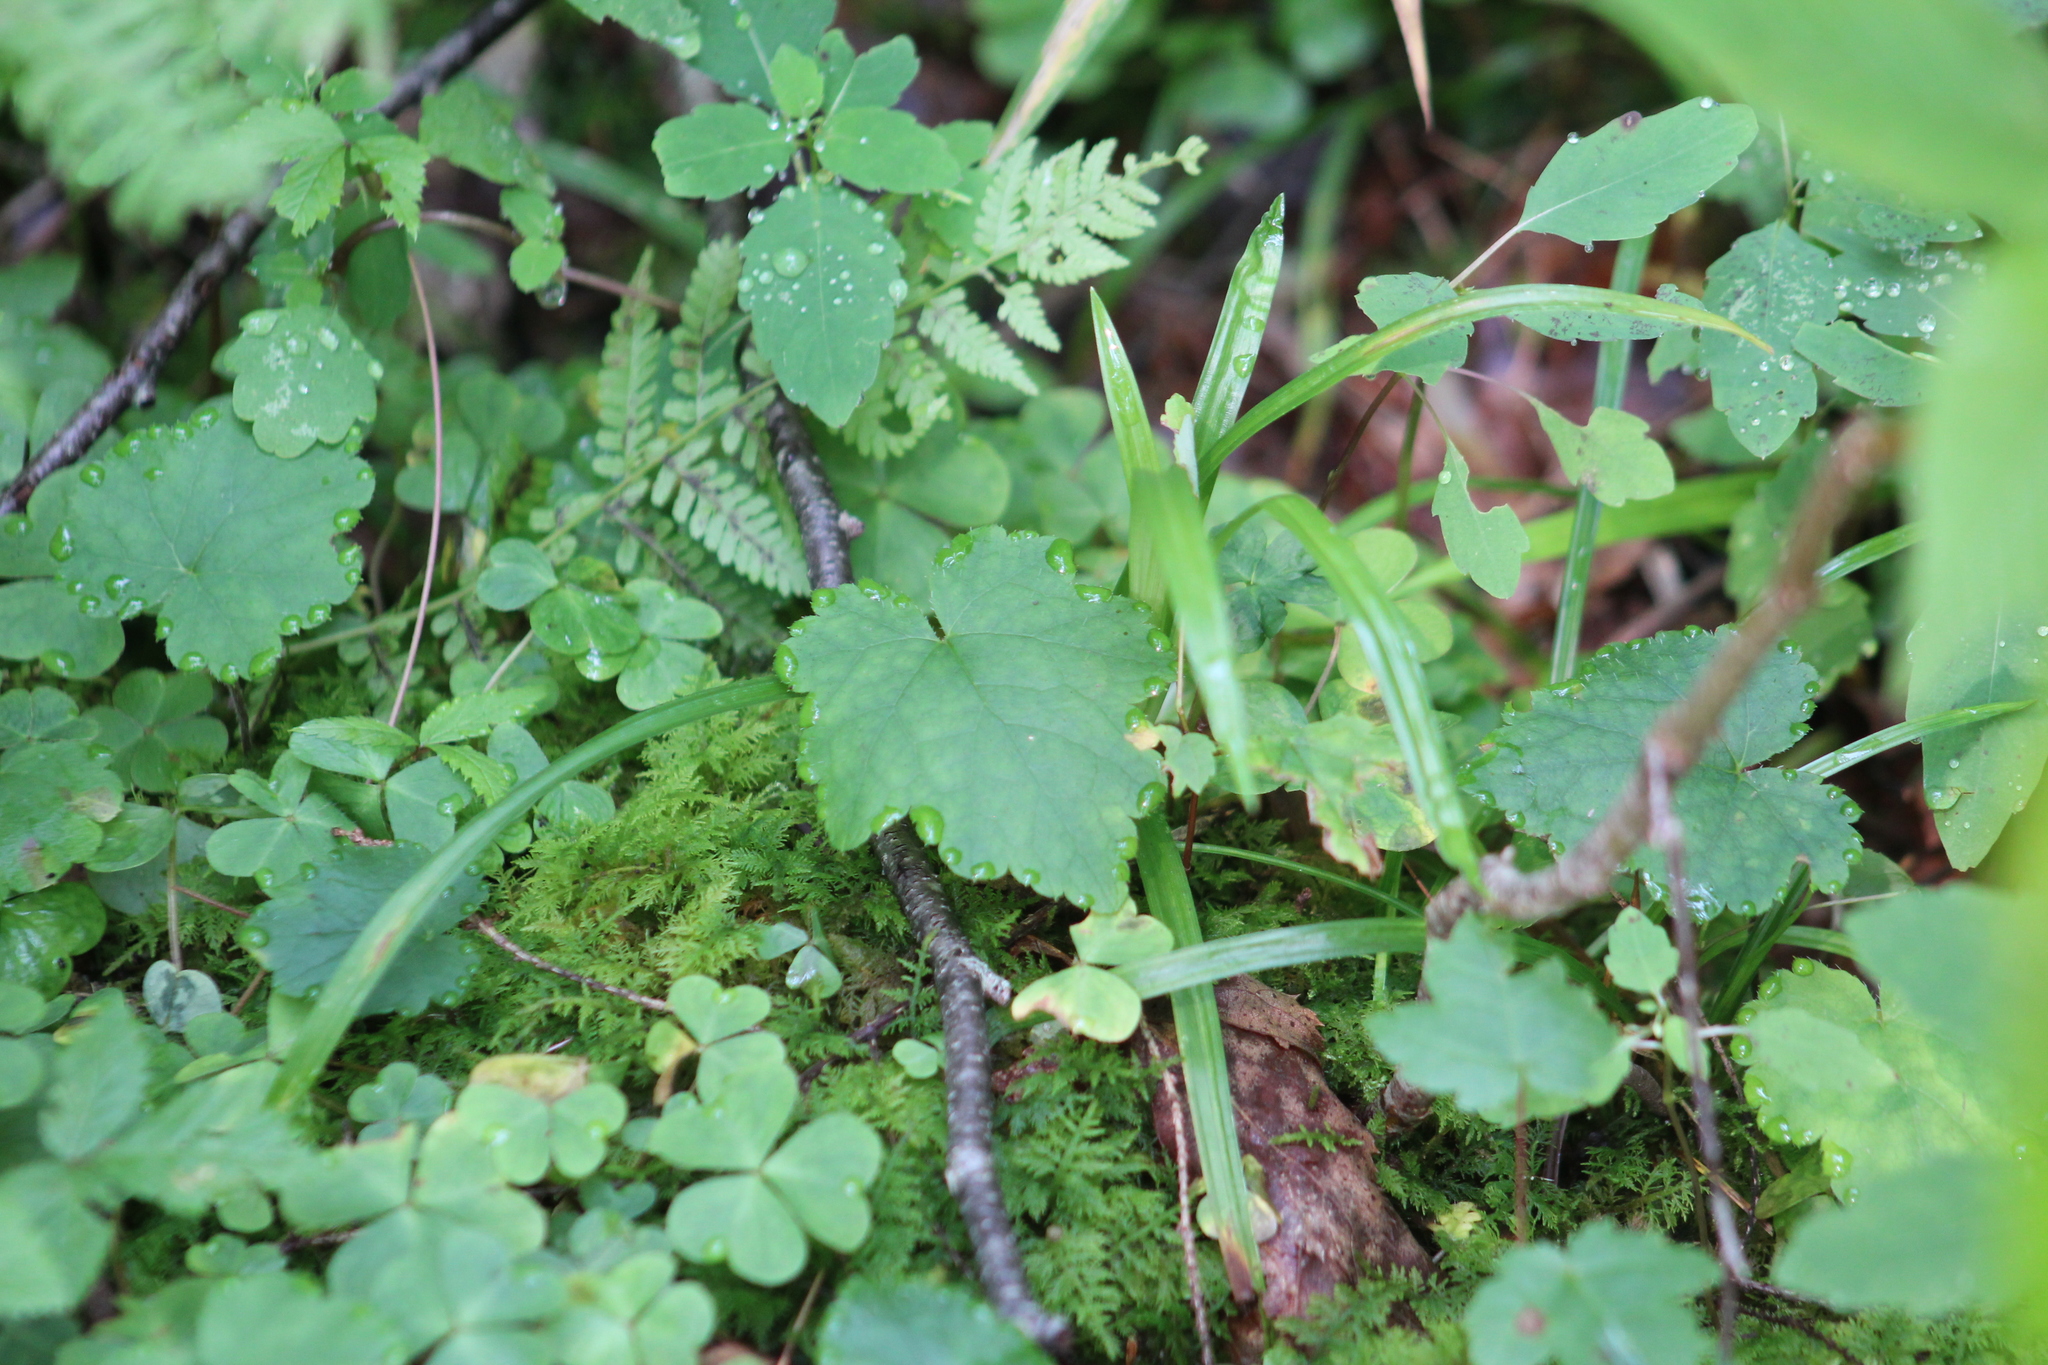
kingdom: Plantae
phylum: Tracheophyta
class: Magnoliopsida
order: Saxifragales
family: Saxifragaceae
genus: Tiarella
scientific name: Tiarella stolonifera
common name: Stoloniferous foamflower
